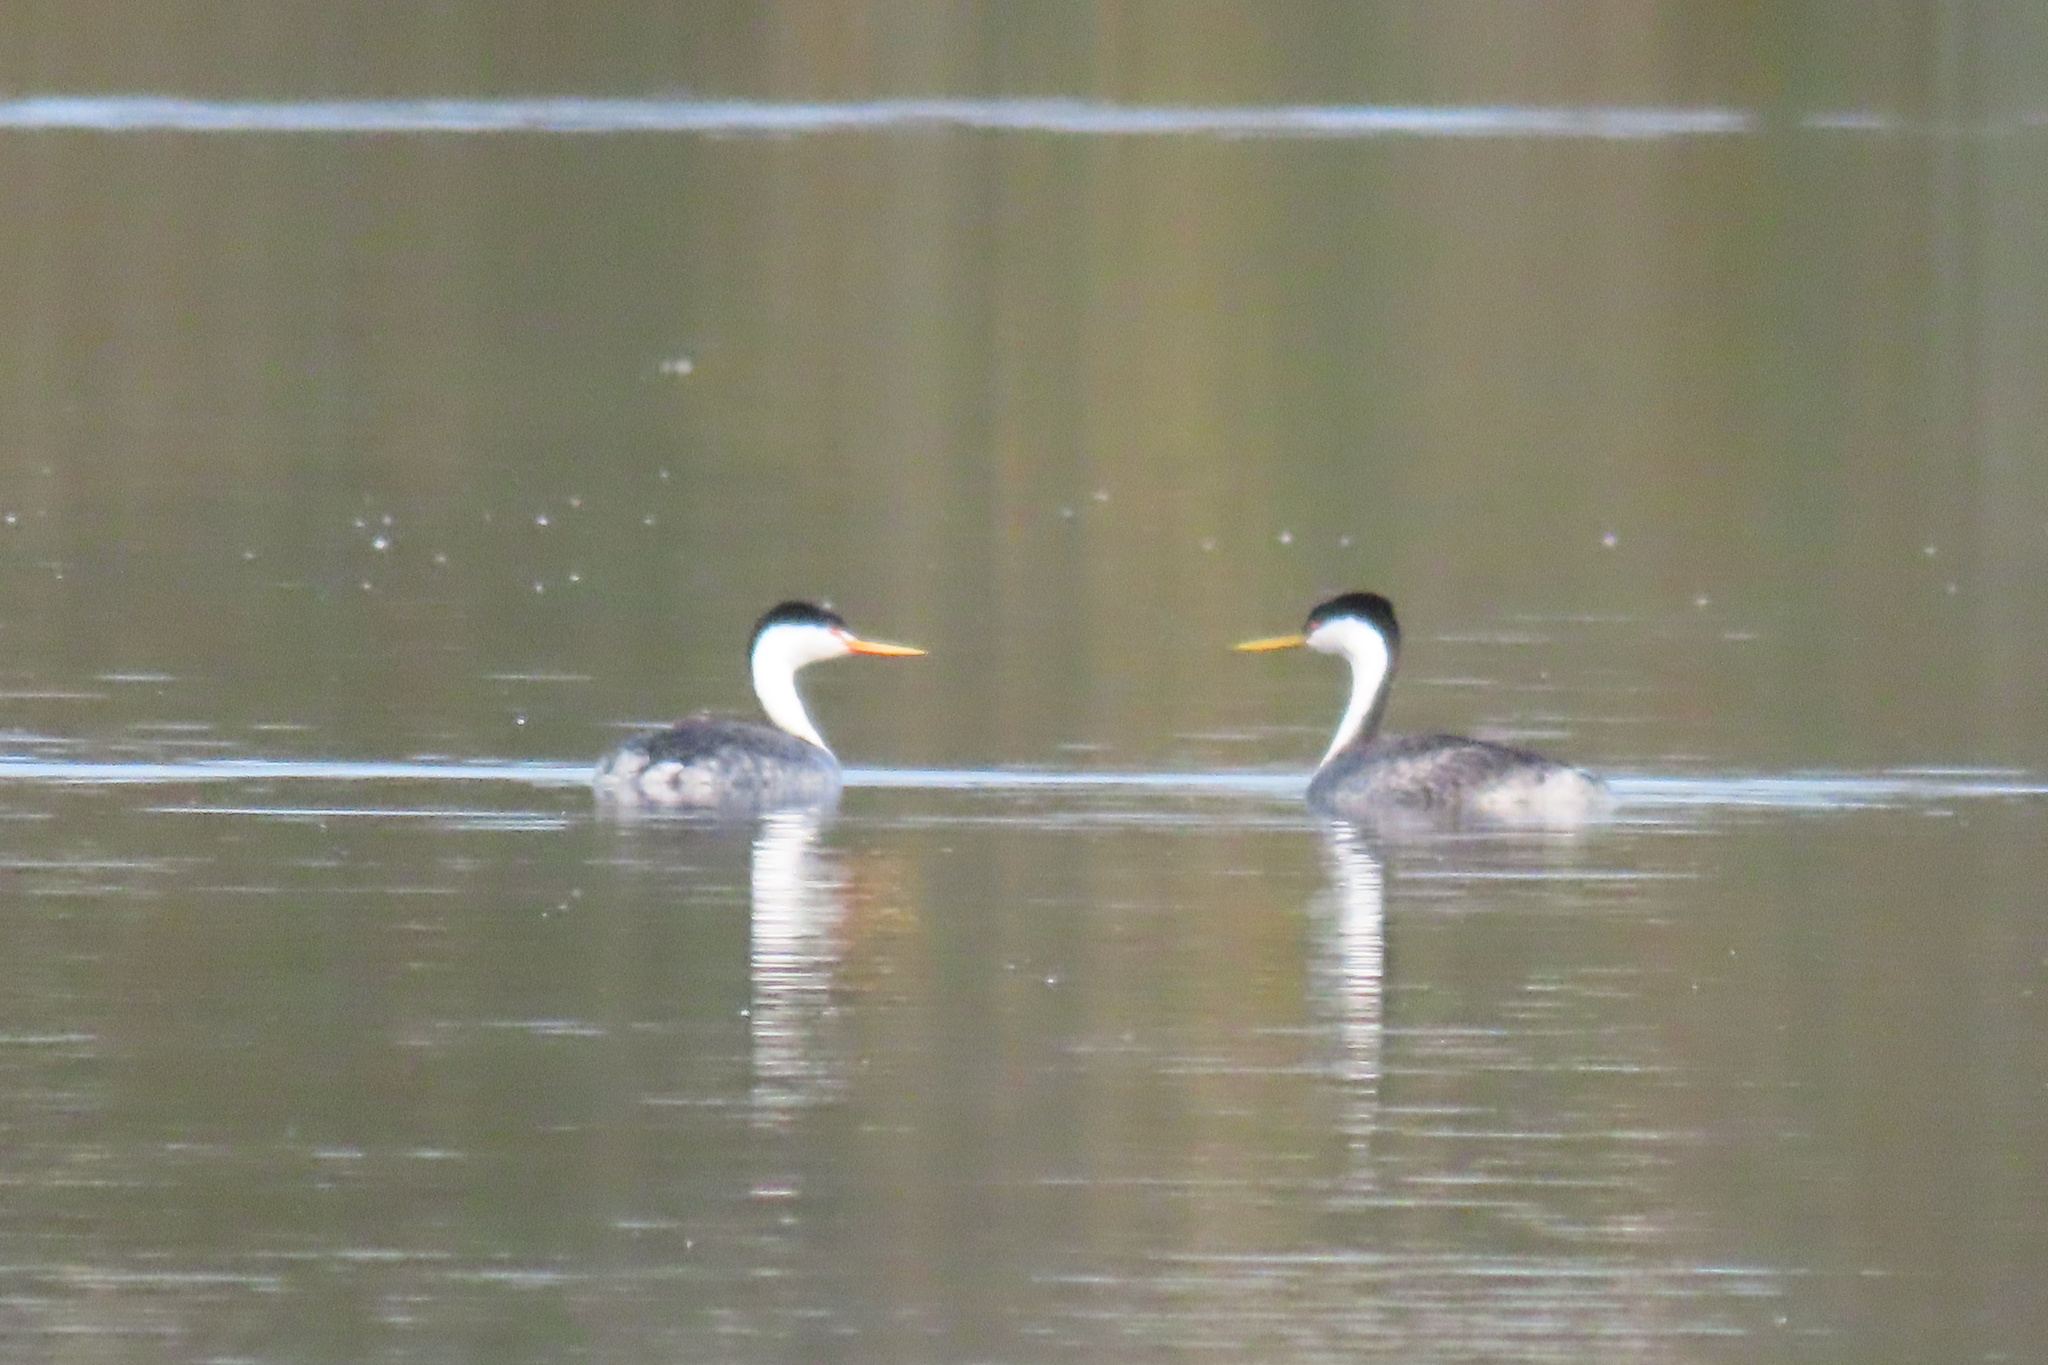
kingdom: Animalia
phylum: Chordata
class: Aves
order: Podicipediformes
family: Podicipedidae
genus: Aechmophorus
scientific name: Aechmophorus clarkii
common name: Clark's grebe
